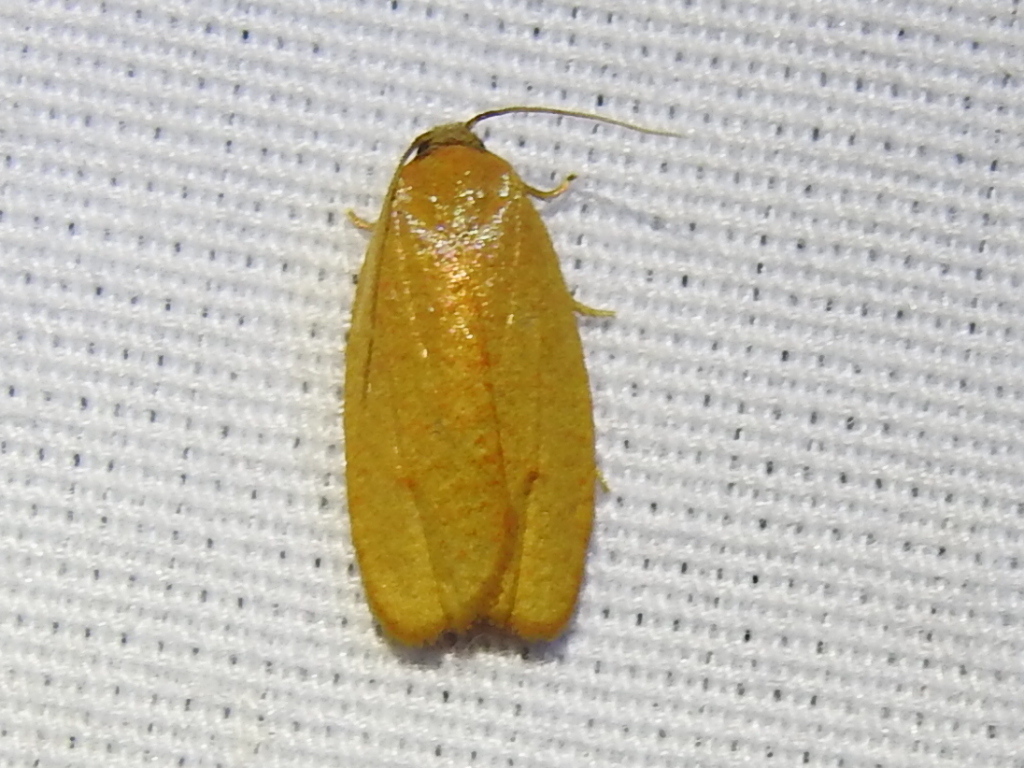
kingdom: Animalia
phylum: Arthropoda
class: Insecta
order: Lepidoptera
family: Tortricidae
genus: Sparganothis
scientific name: Sparganothis demissana
